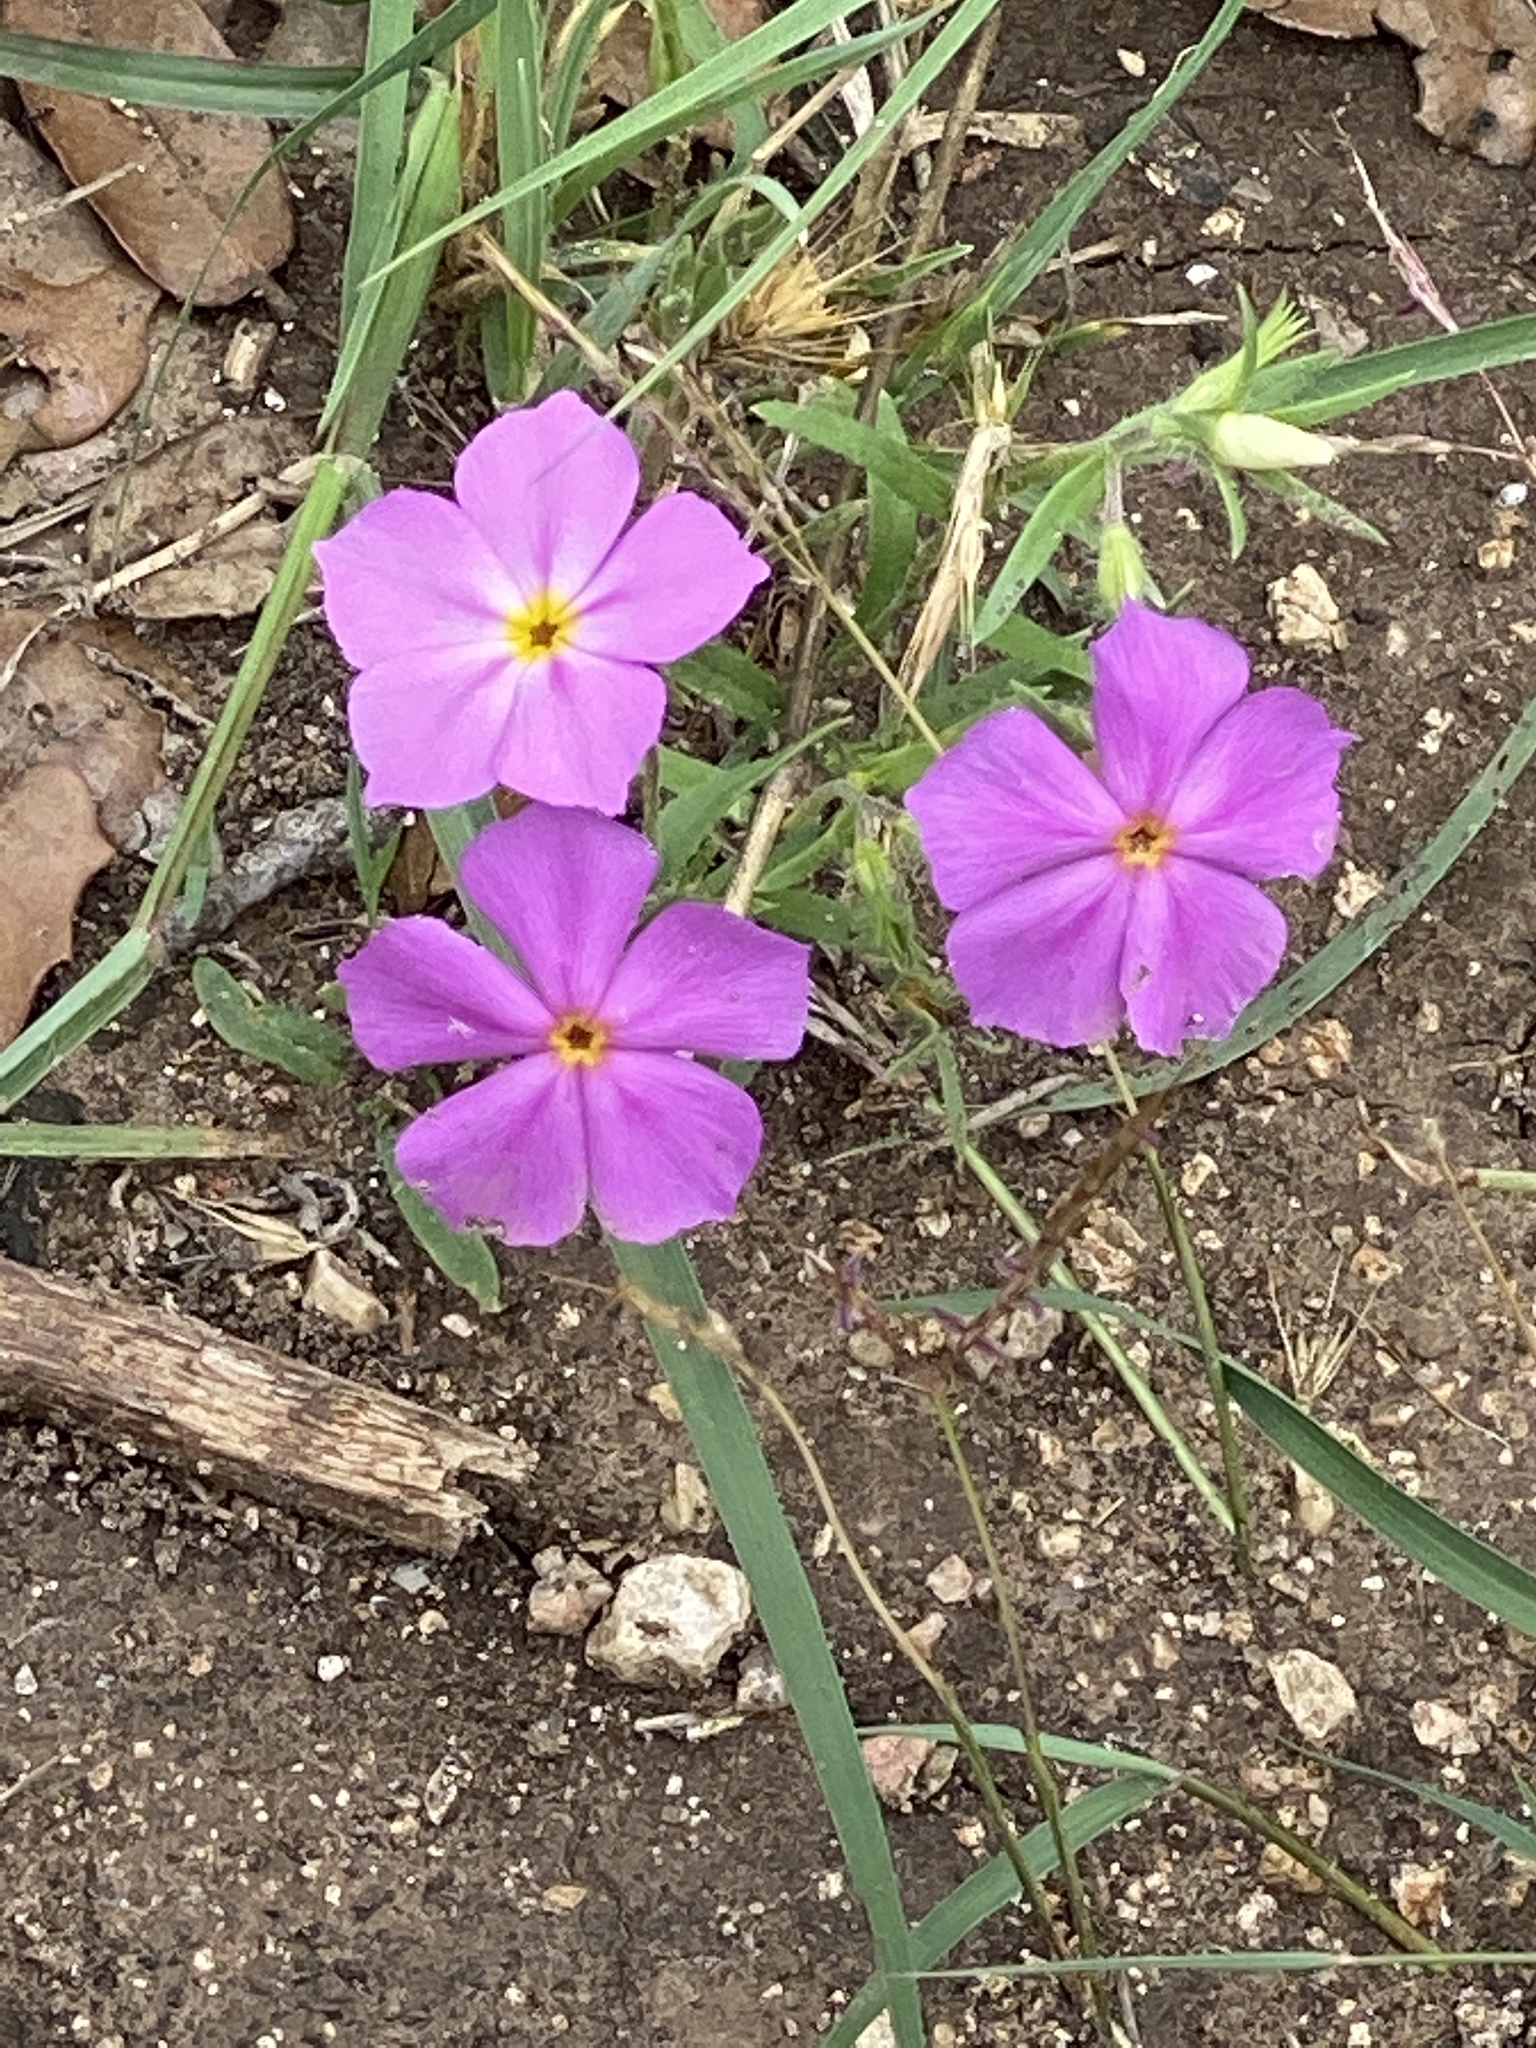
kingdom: Plantae
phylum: Tracheophyta
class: Magnoliopsida
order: Ericales
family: Polemoniaceae
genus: Phlox
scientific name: Phlox roemeriana
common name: Roemer's phlox
